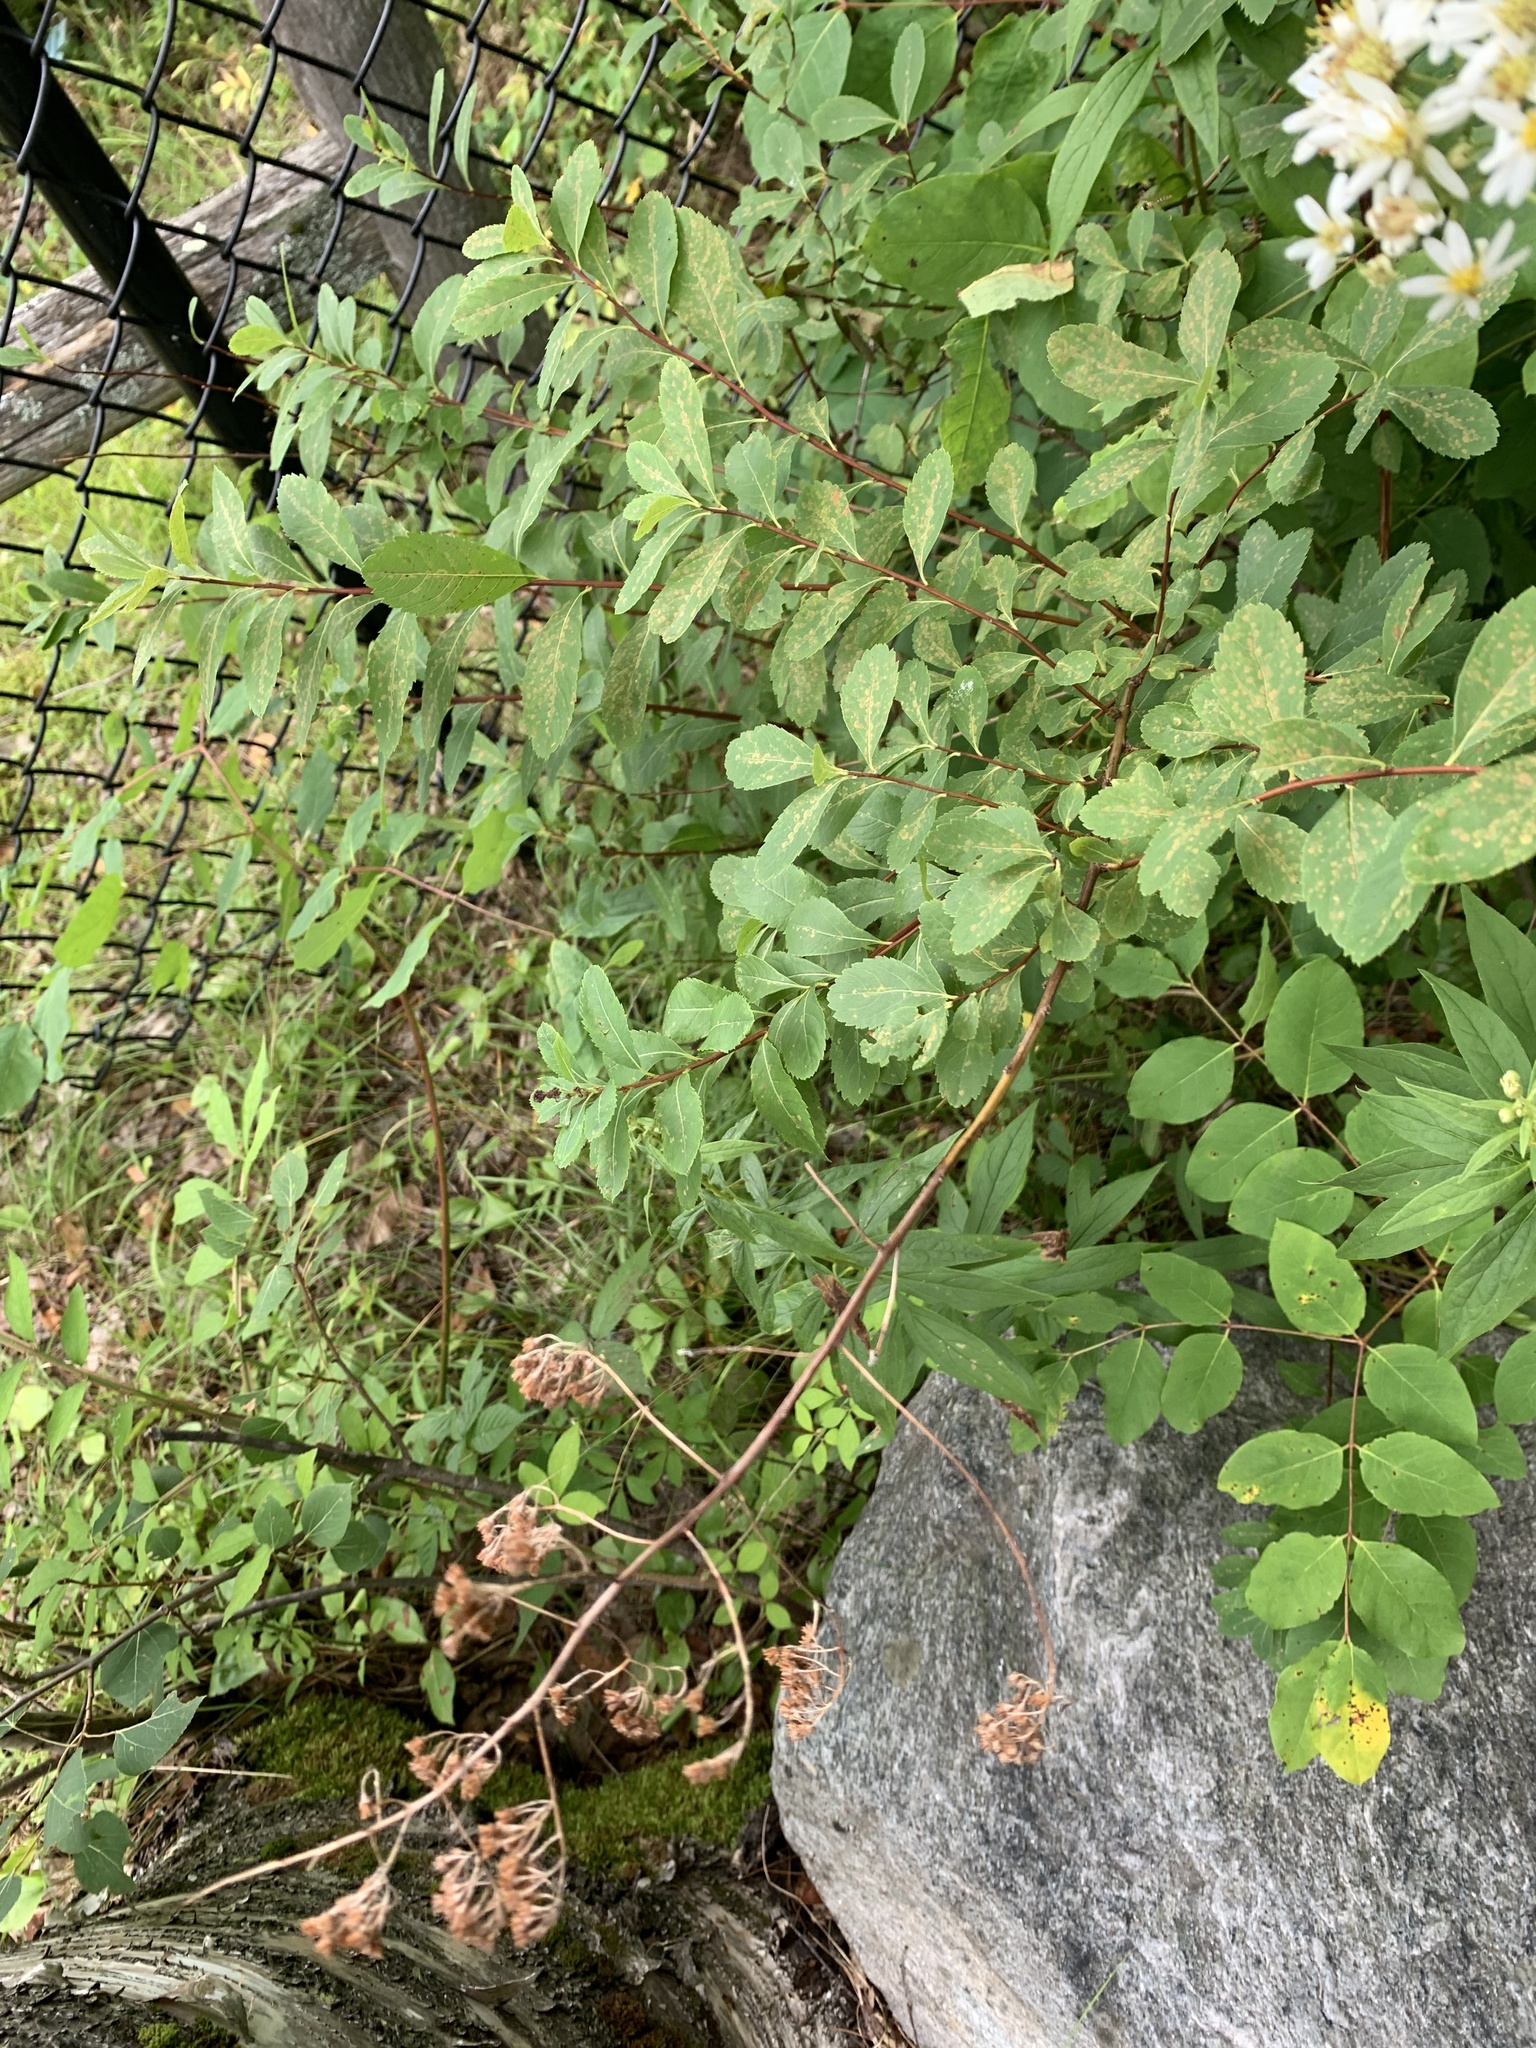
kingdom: Plantae
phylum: Tracheophyta
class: Magnoliopsida
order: Rosales
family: Rosaceae
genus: Spiraea
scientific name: Spiraea alba
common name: Pale bridewort
